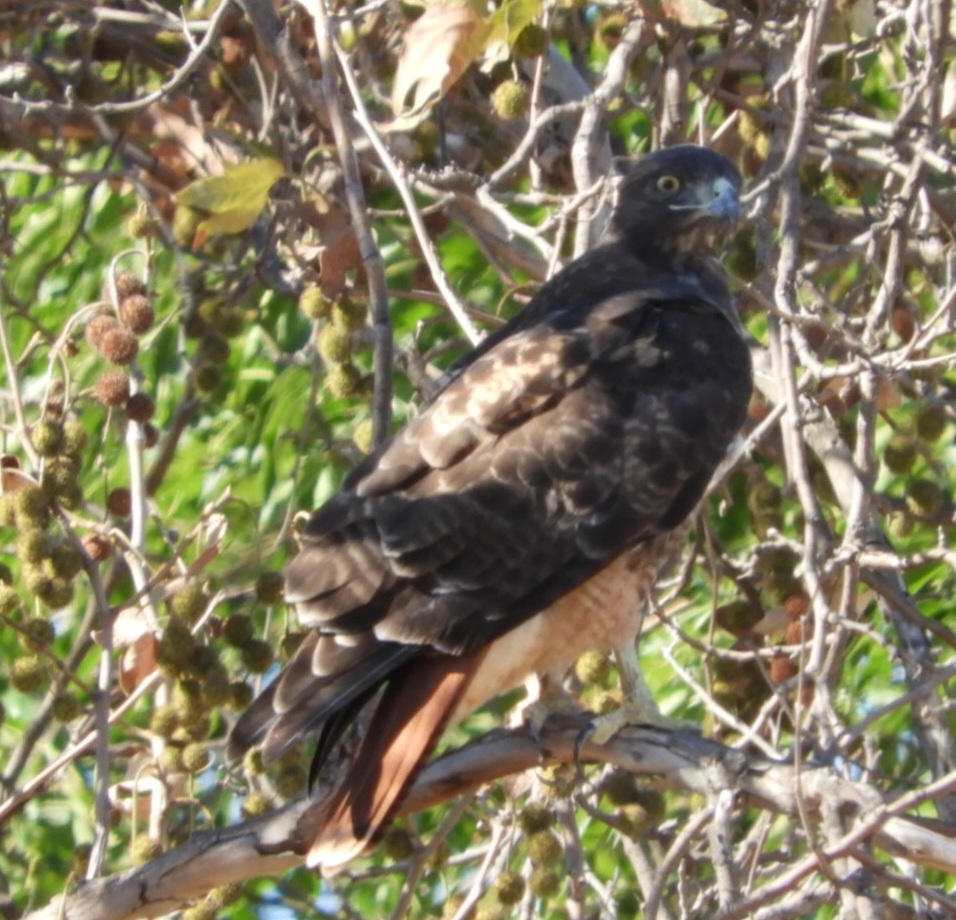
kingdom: Animalia
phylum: Chordata
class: Aves
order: Accipitriformes
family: Accipitridae
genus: Buteo
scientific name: Buteo jamaicensis
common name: Red-tailed hawk
